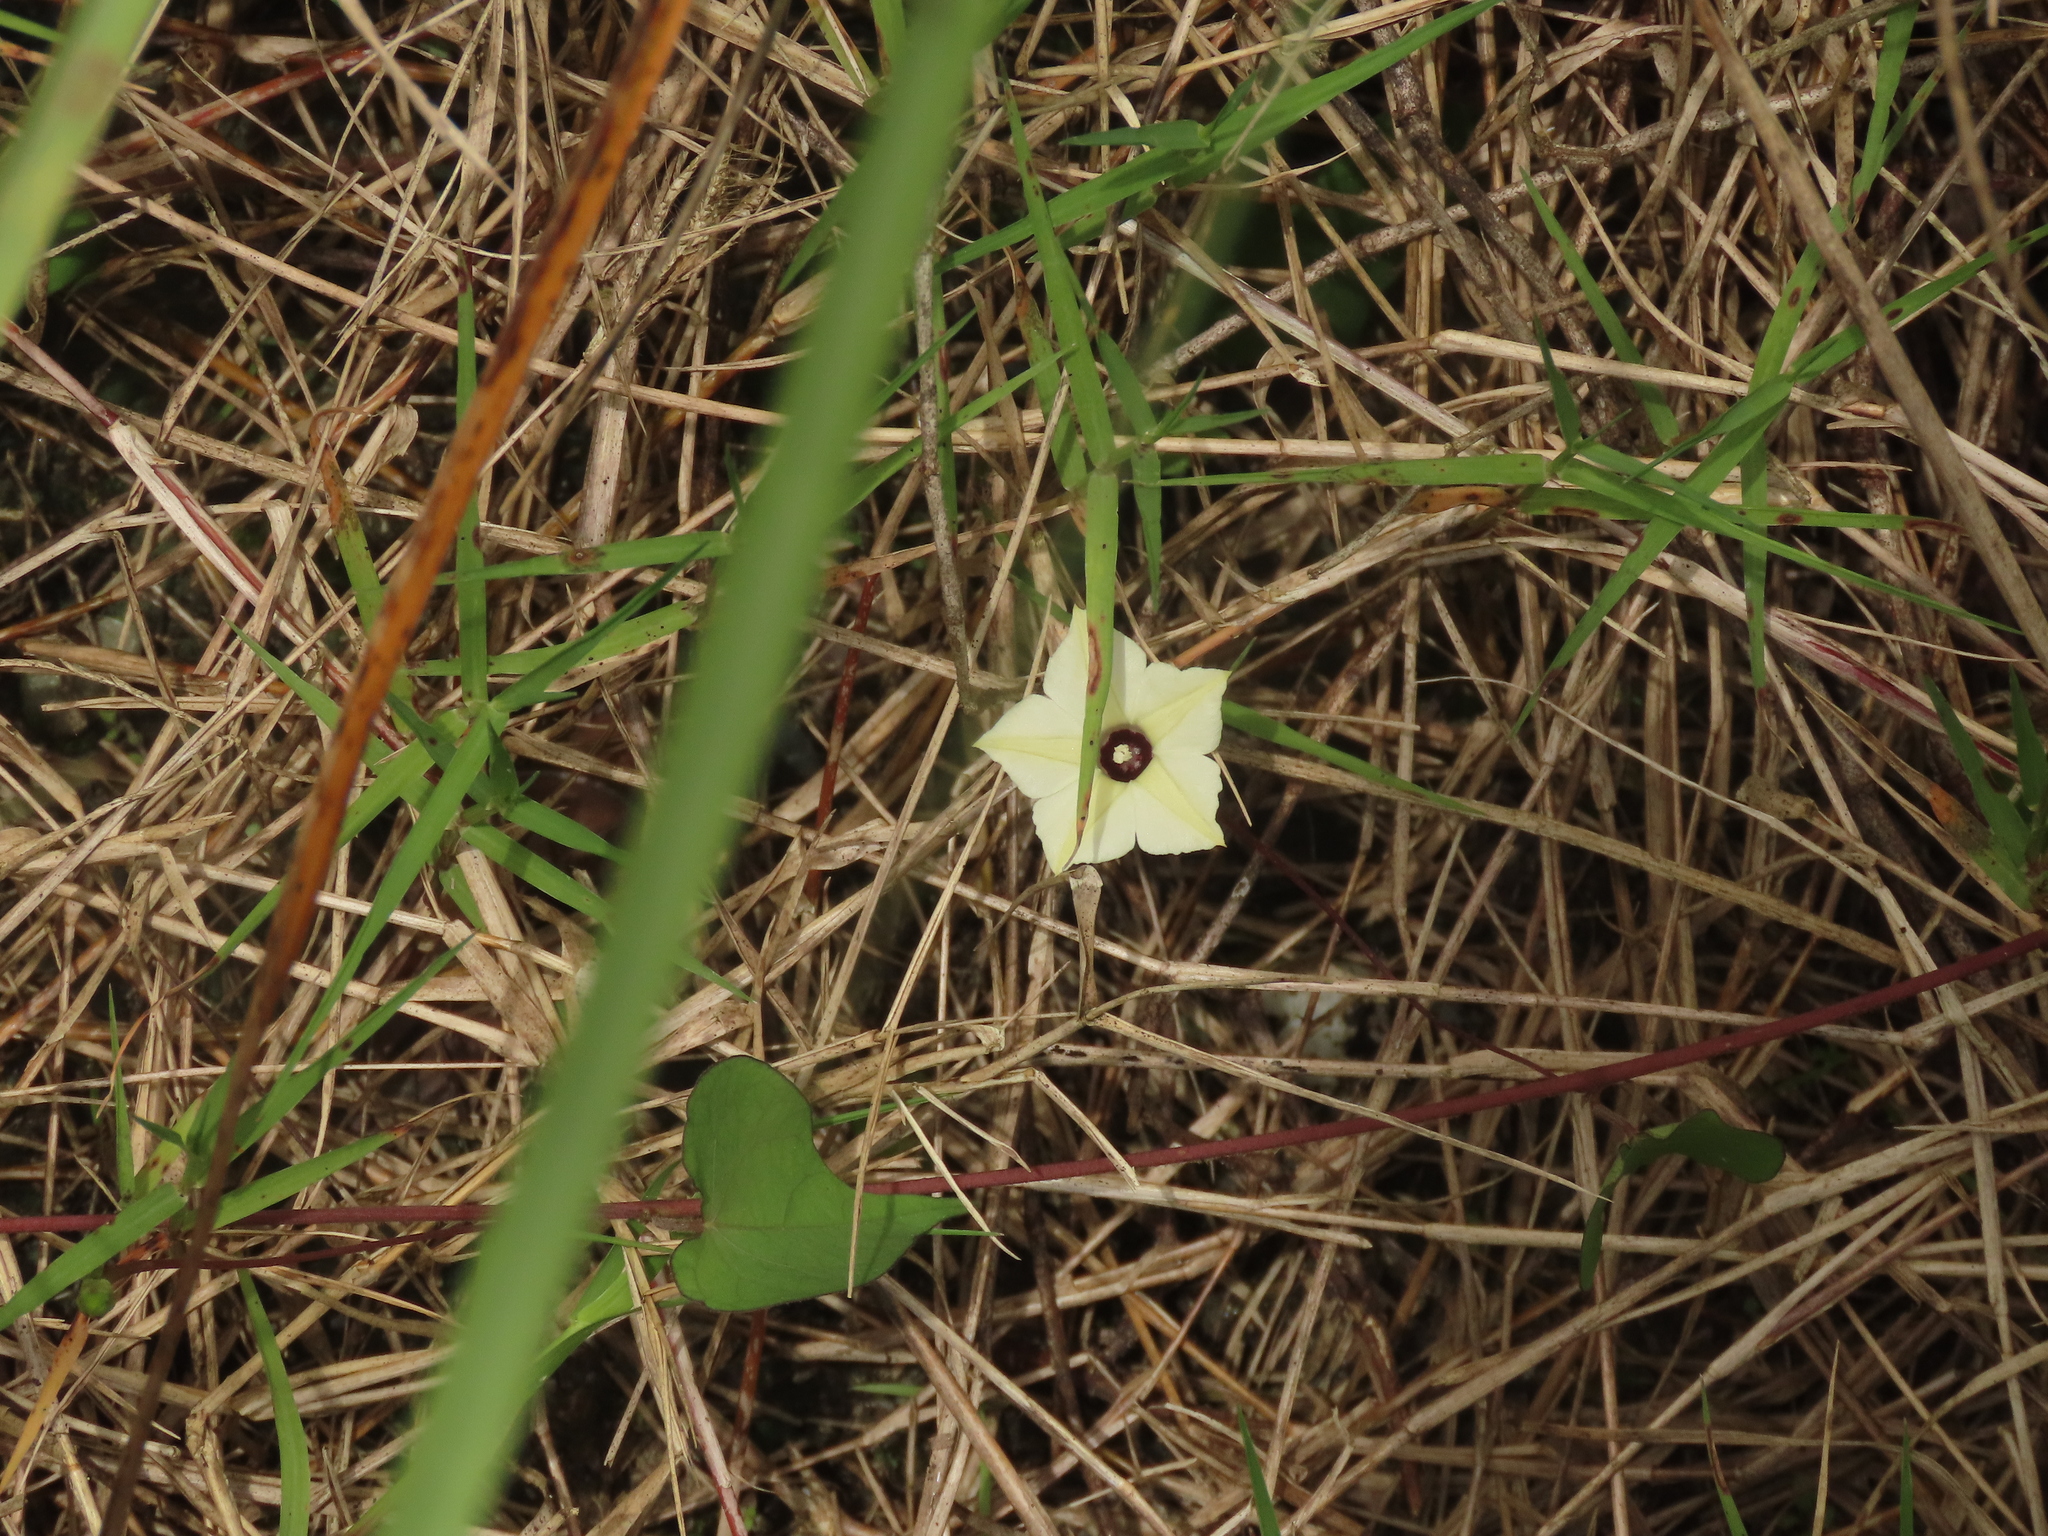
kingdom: Plantae
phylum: Tracheophyta
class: Magnoliopsida
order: Solanales
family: Convolvulaceae
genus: Ipomoea
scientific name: Ipomoea obscura
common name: Obscure morning-glory
